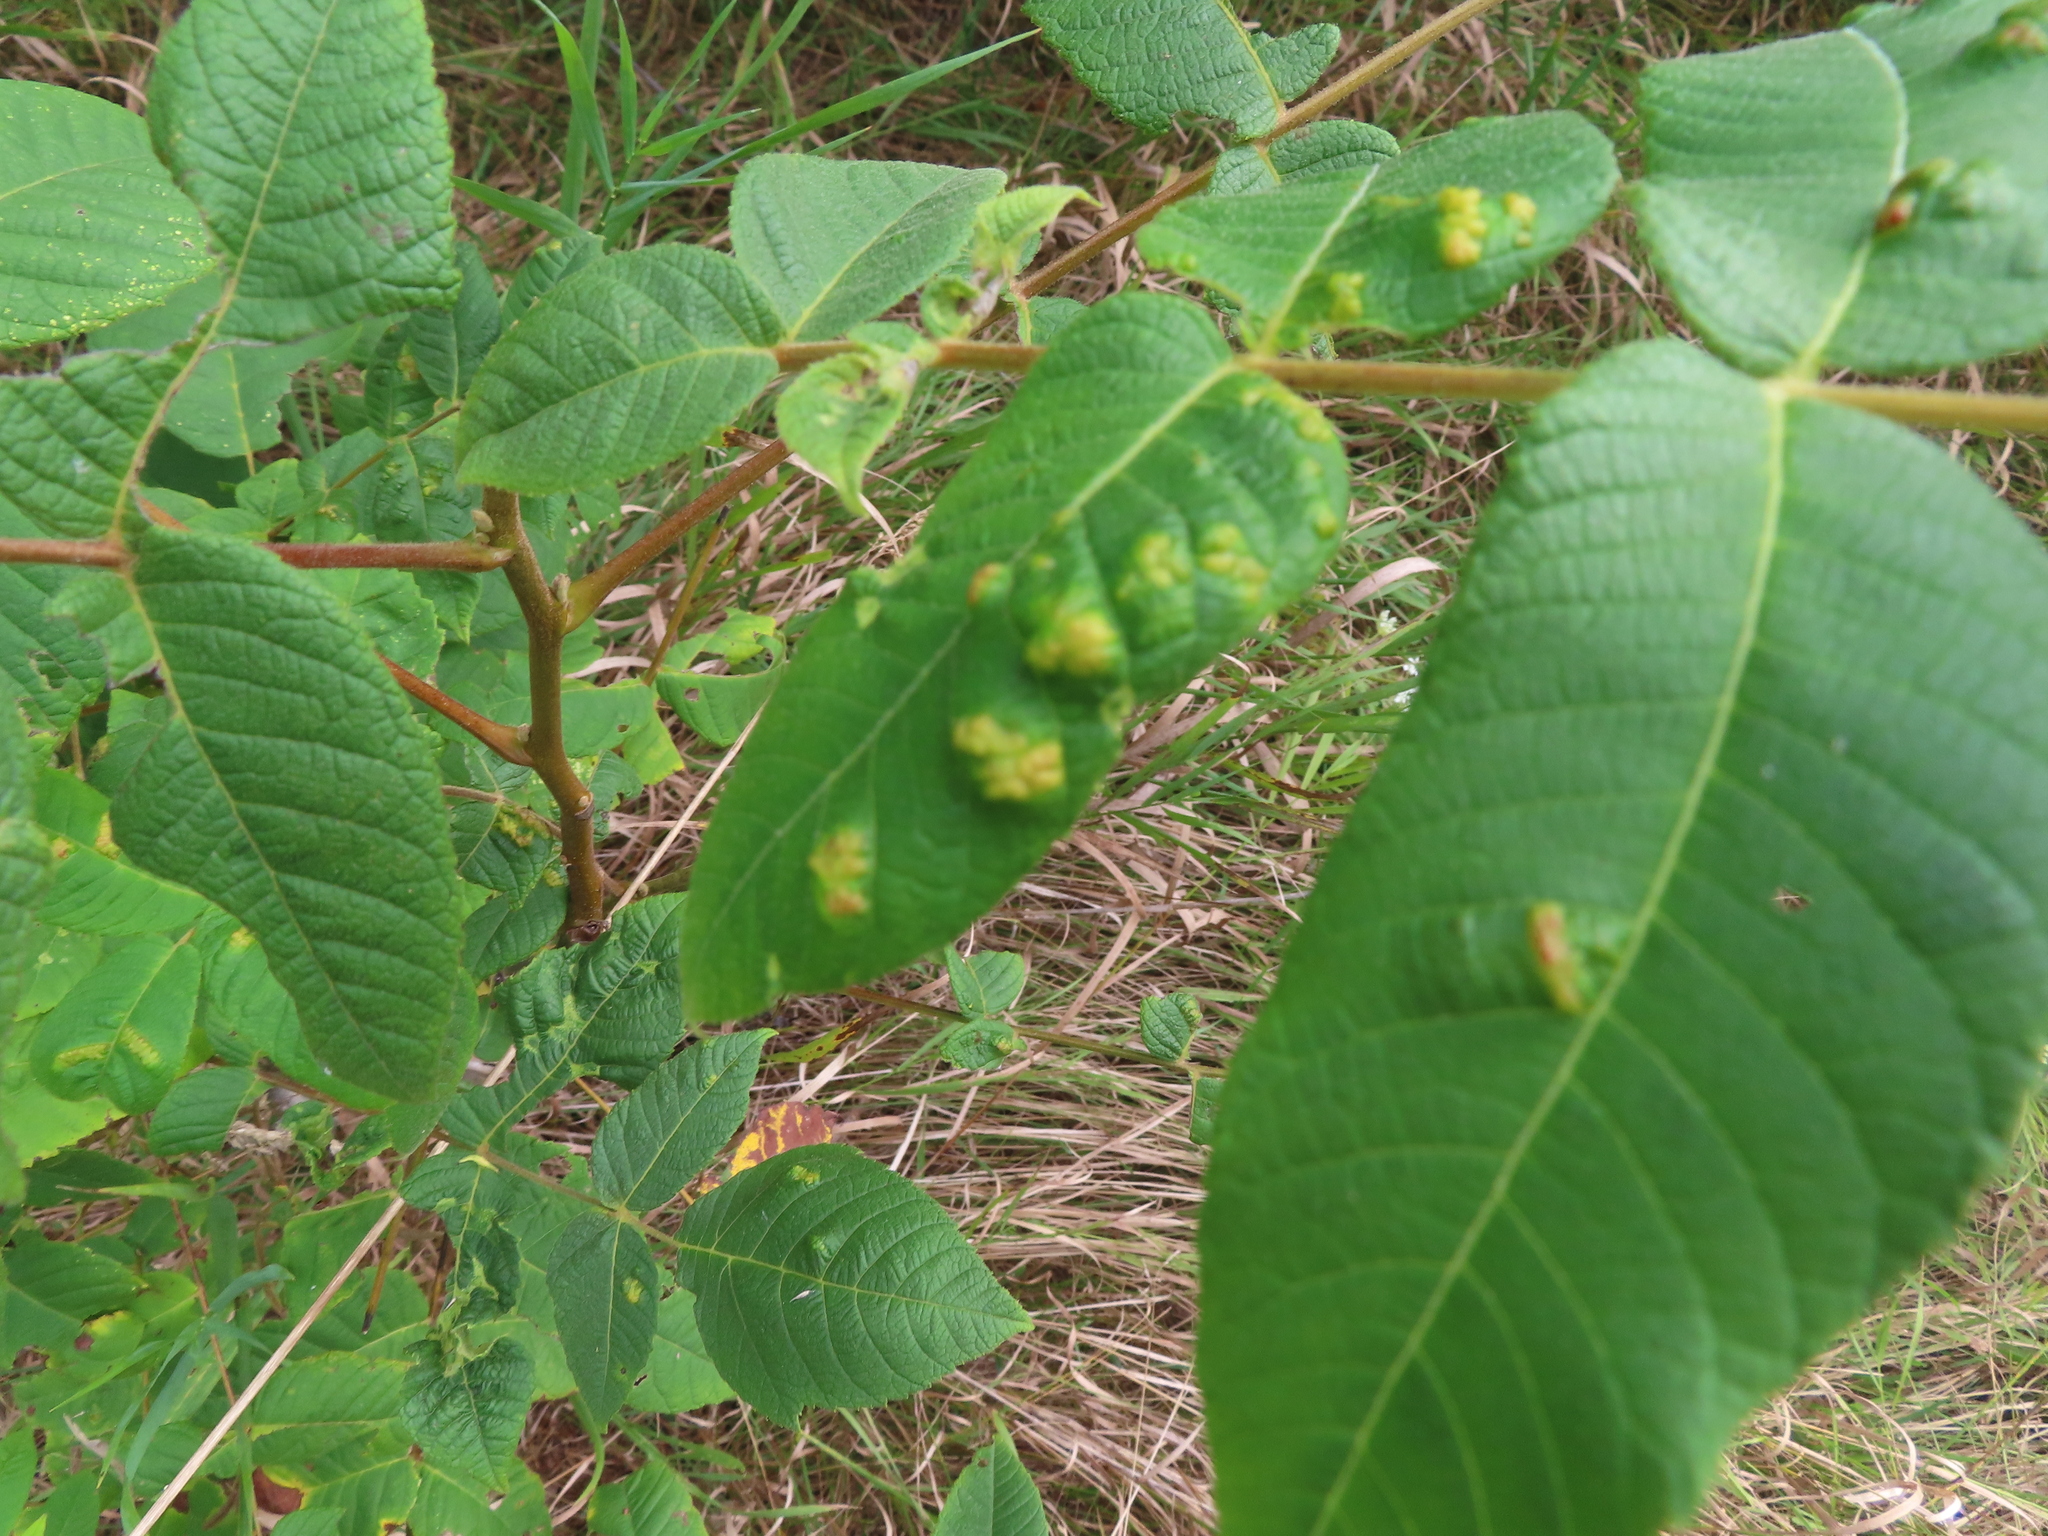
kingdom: Animalia
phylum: Arthropoda
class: Arachnida
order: Trombidiformes
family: Eriophyidae
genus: Aceria
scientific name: Aceria
